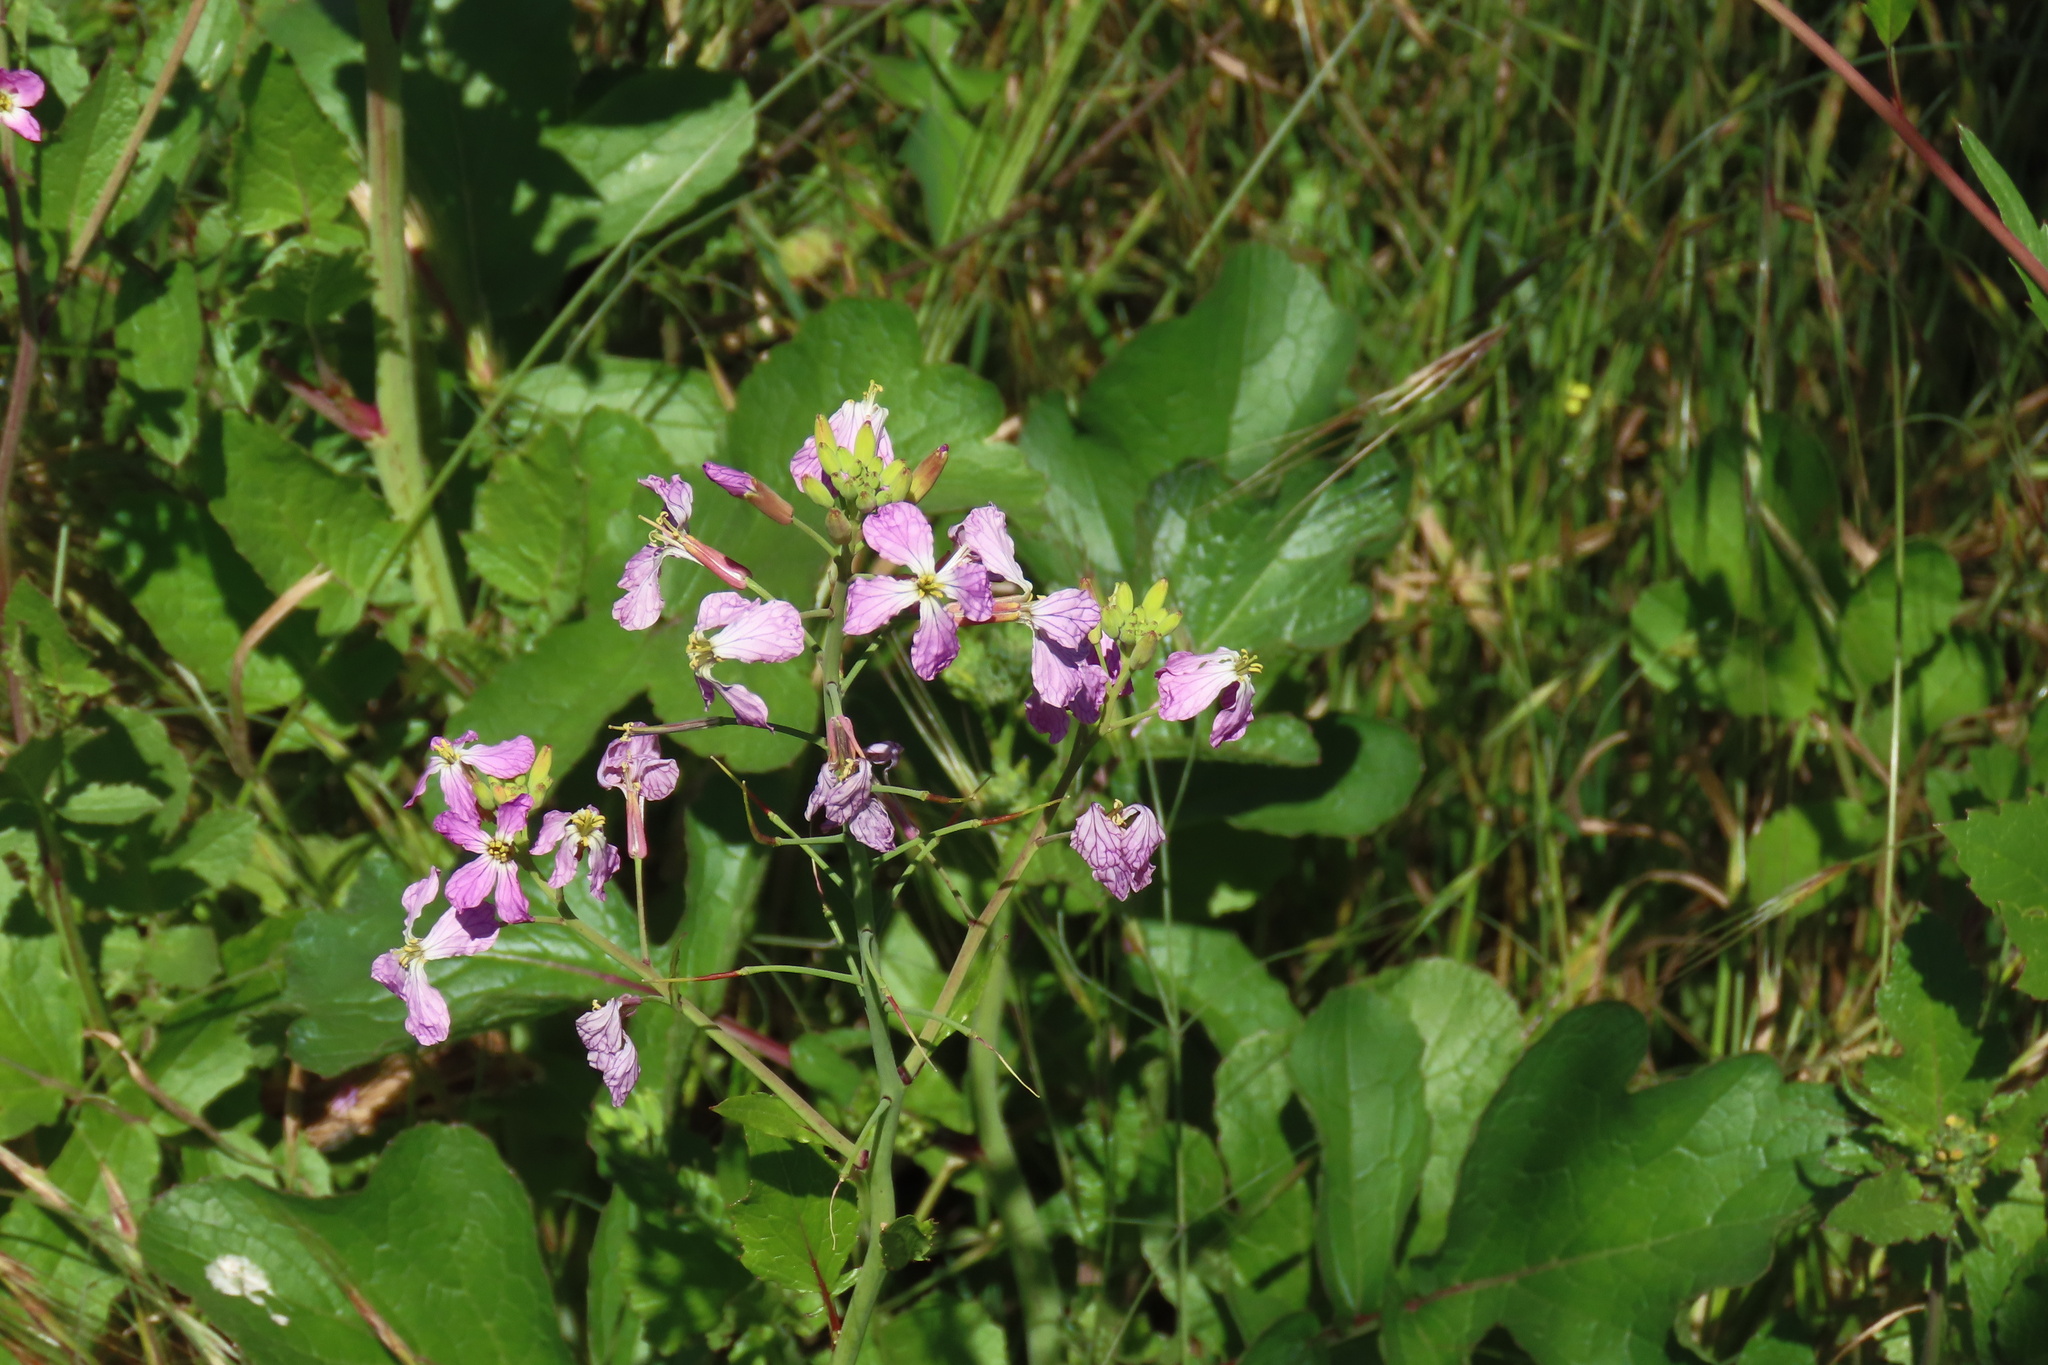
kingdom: Plantae
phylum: Tracheophyta
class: Magnoliopsida
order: Brassicales
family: Brassicaceae
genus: Raphanus
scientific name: Raphanus sativus
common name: Cultivated radish
